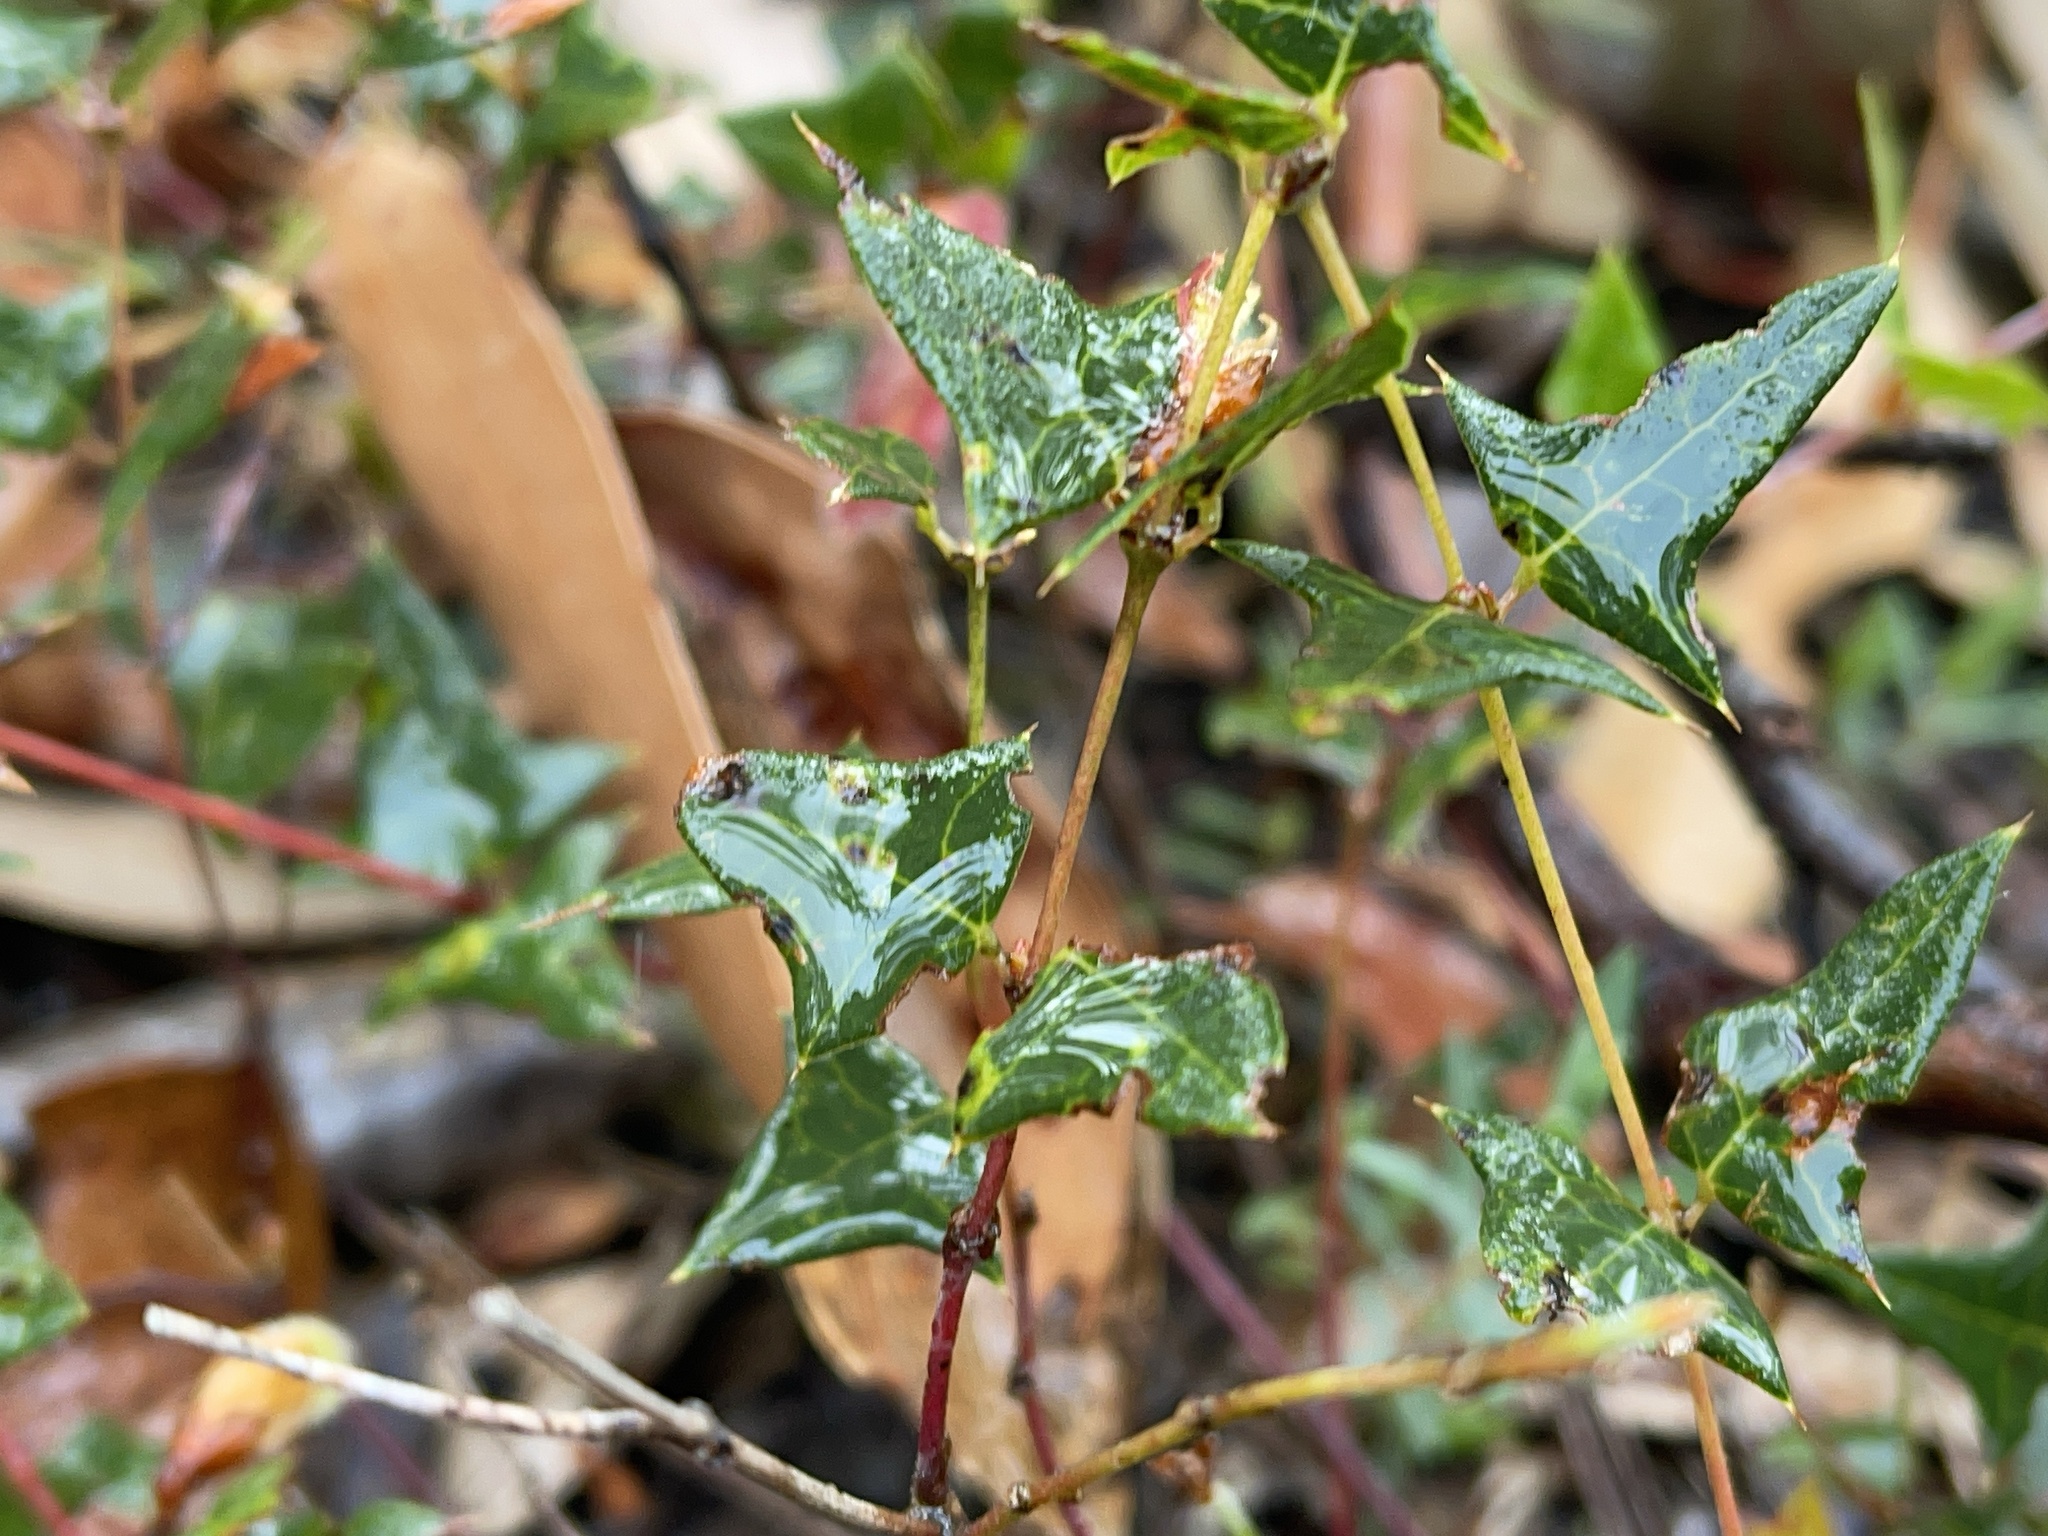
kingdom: Plantae
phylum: Tracheophyta
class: Magnoliopsida
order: Fabales
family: Fabaceae
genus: Platylobium
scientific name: Platylobium obtusangulum
